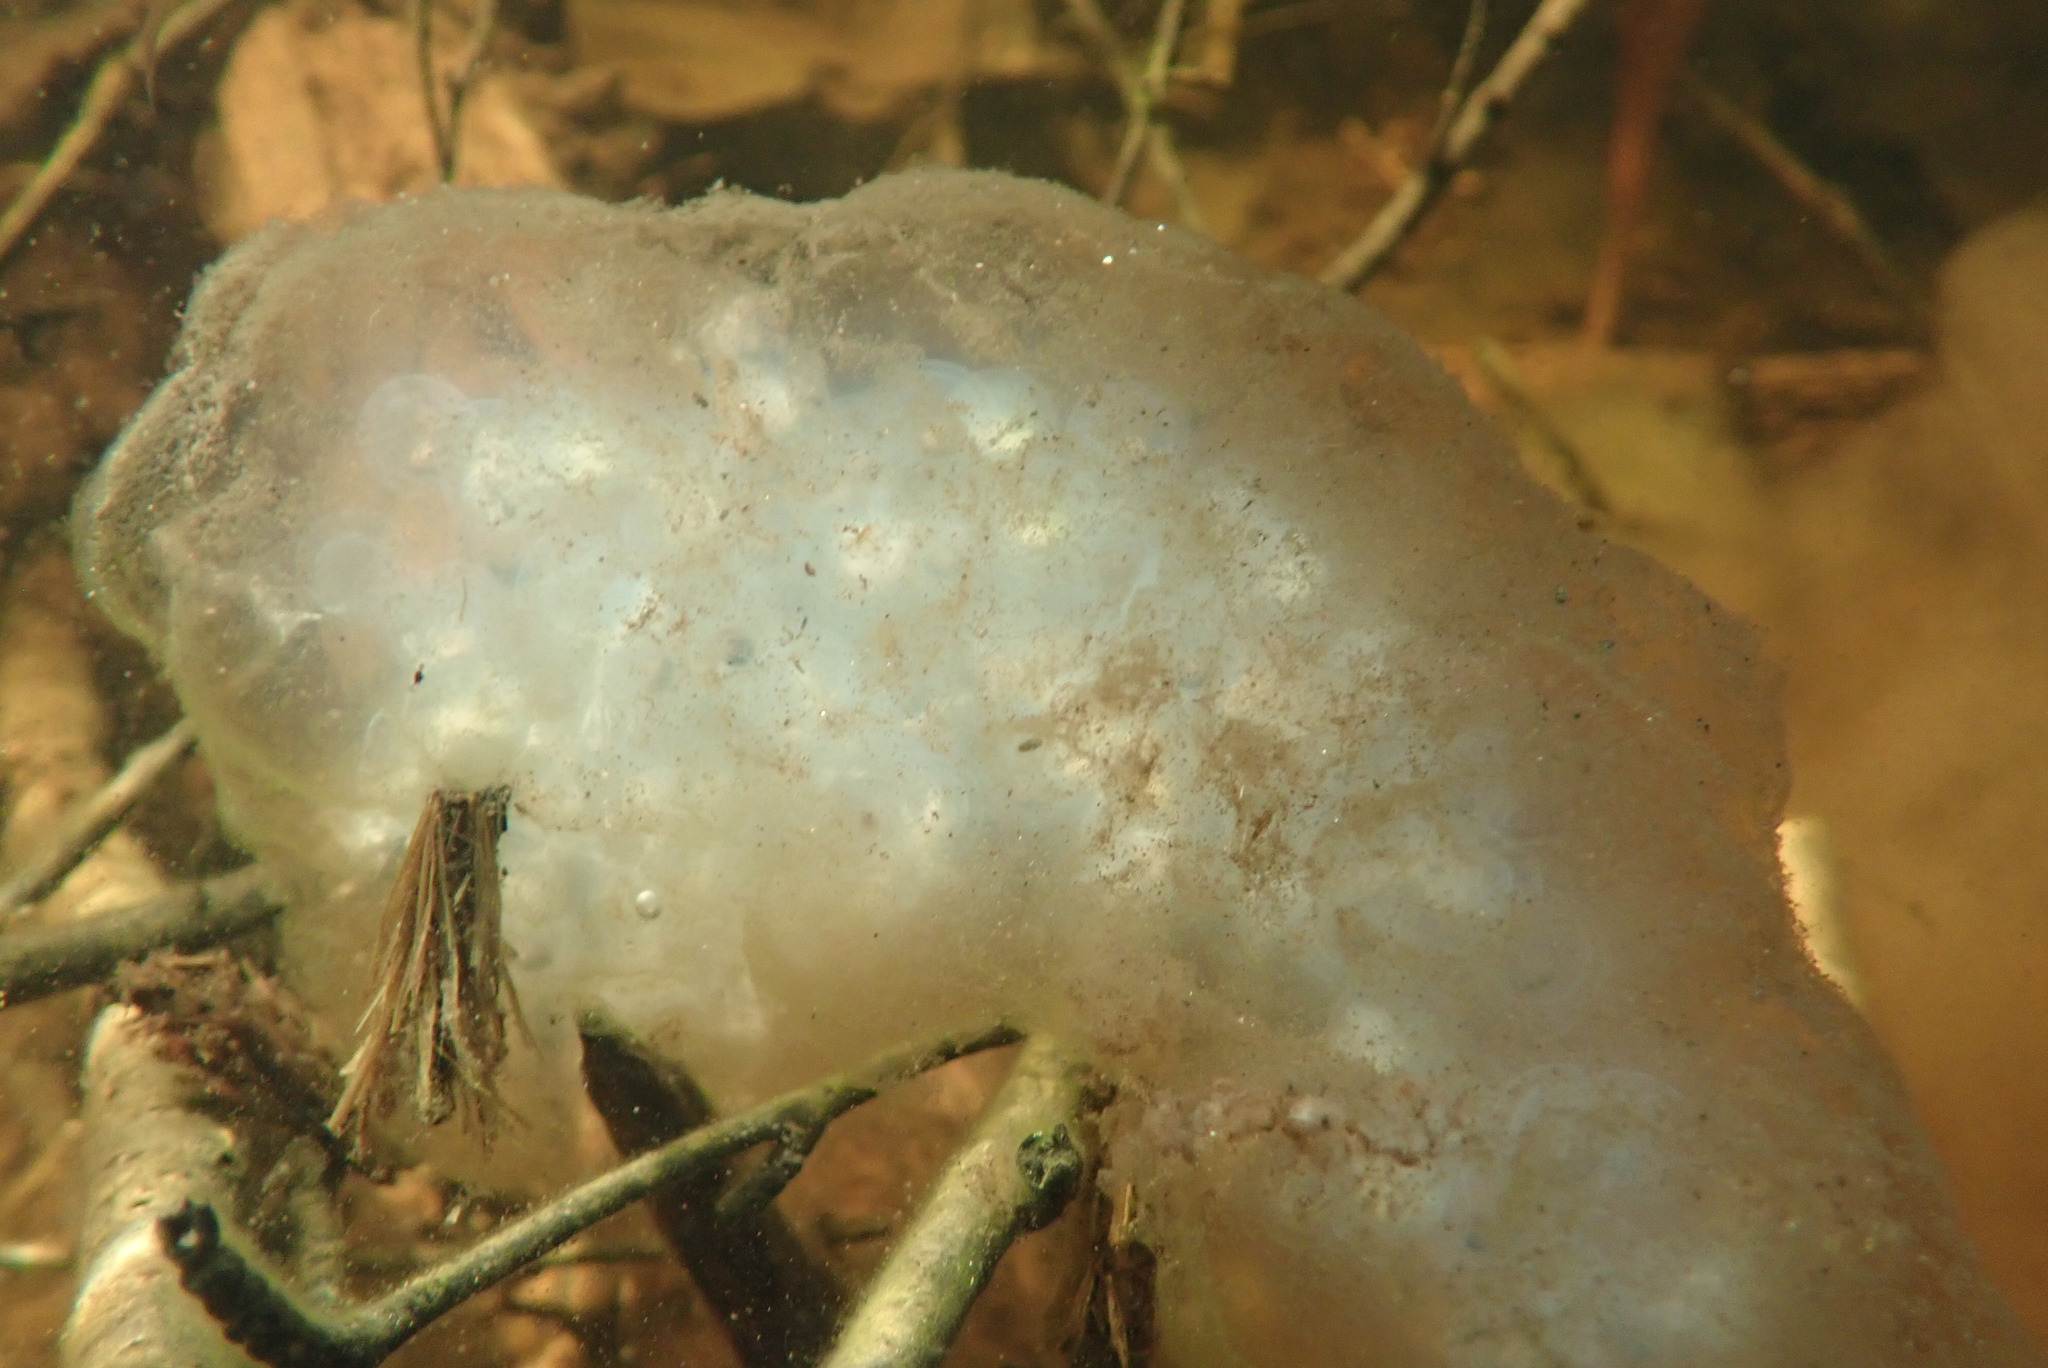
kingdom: Animalia
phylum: Chordata
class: Amphibia
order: Caudata
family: Ambystomatidae
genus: Ambystoma
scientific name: Ambystoma maculatum
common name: Spotted salamander
